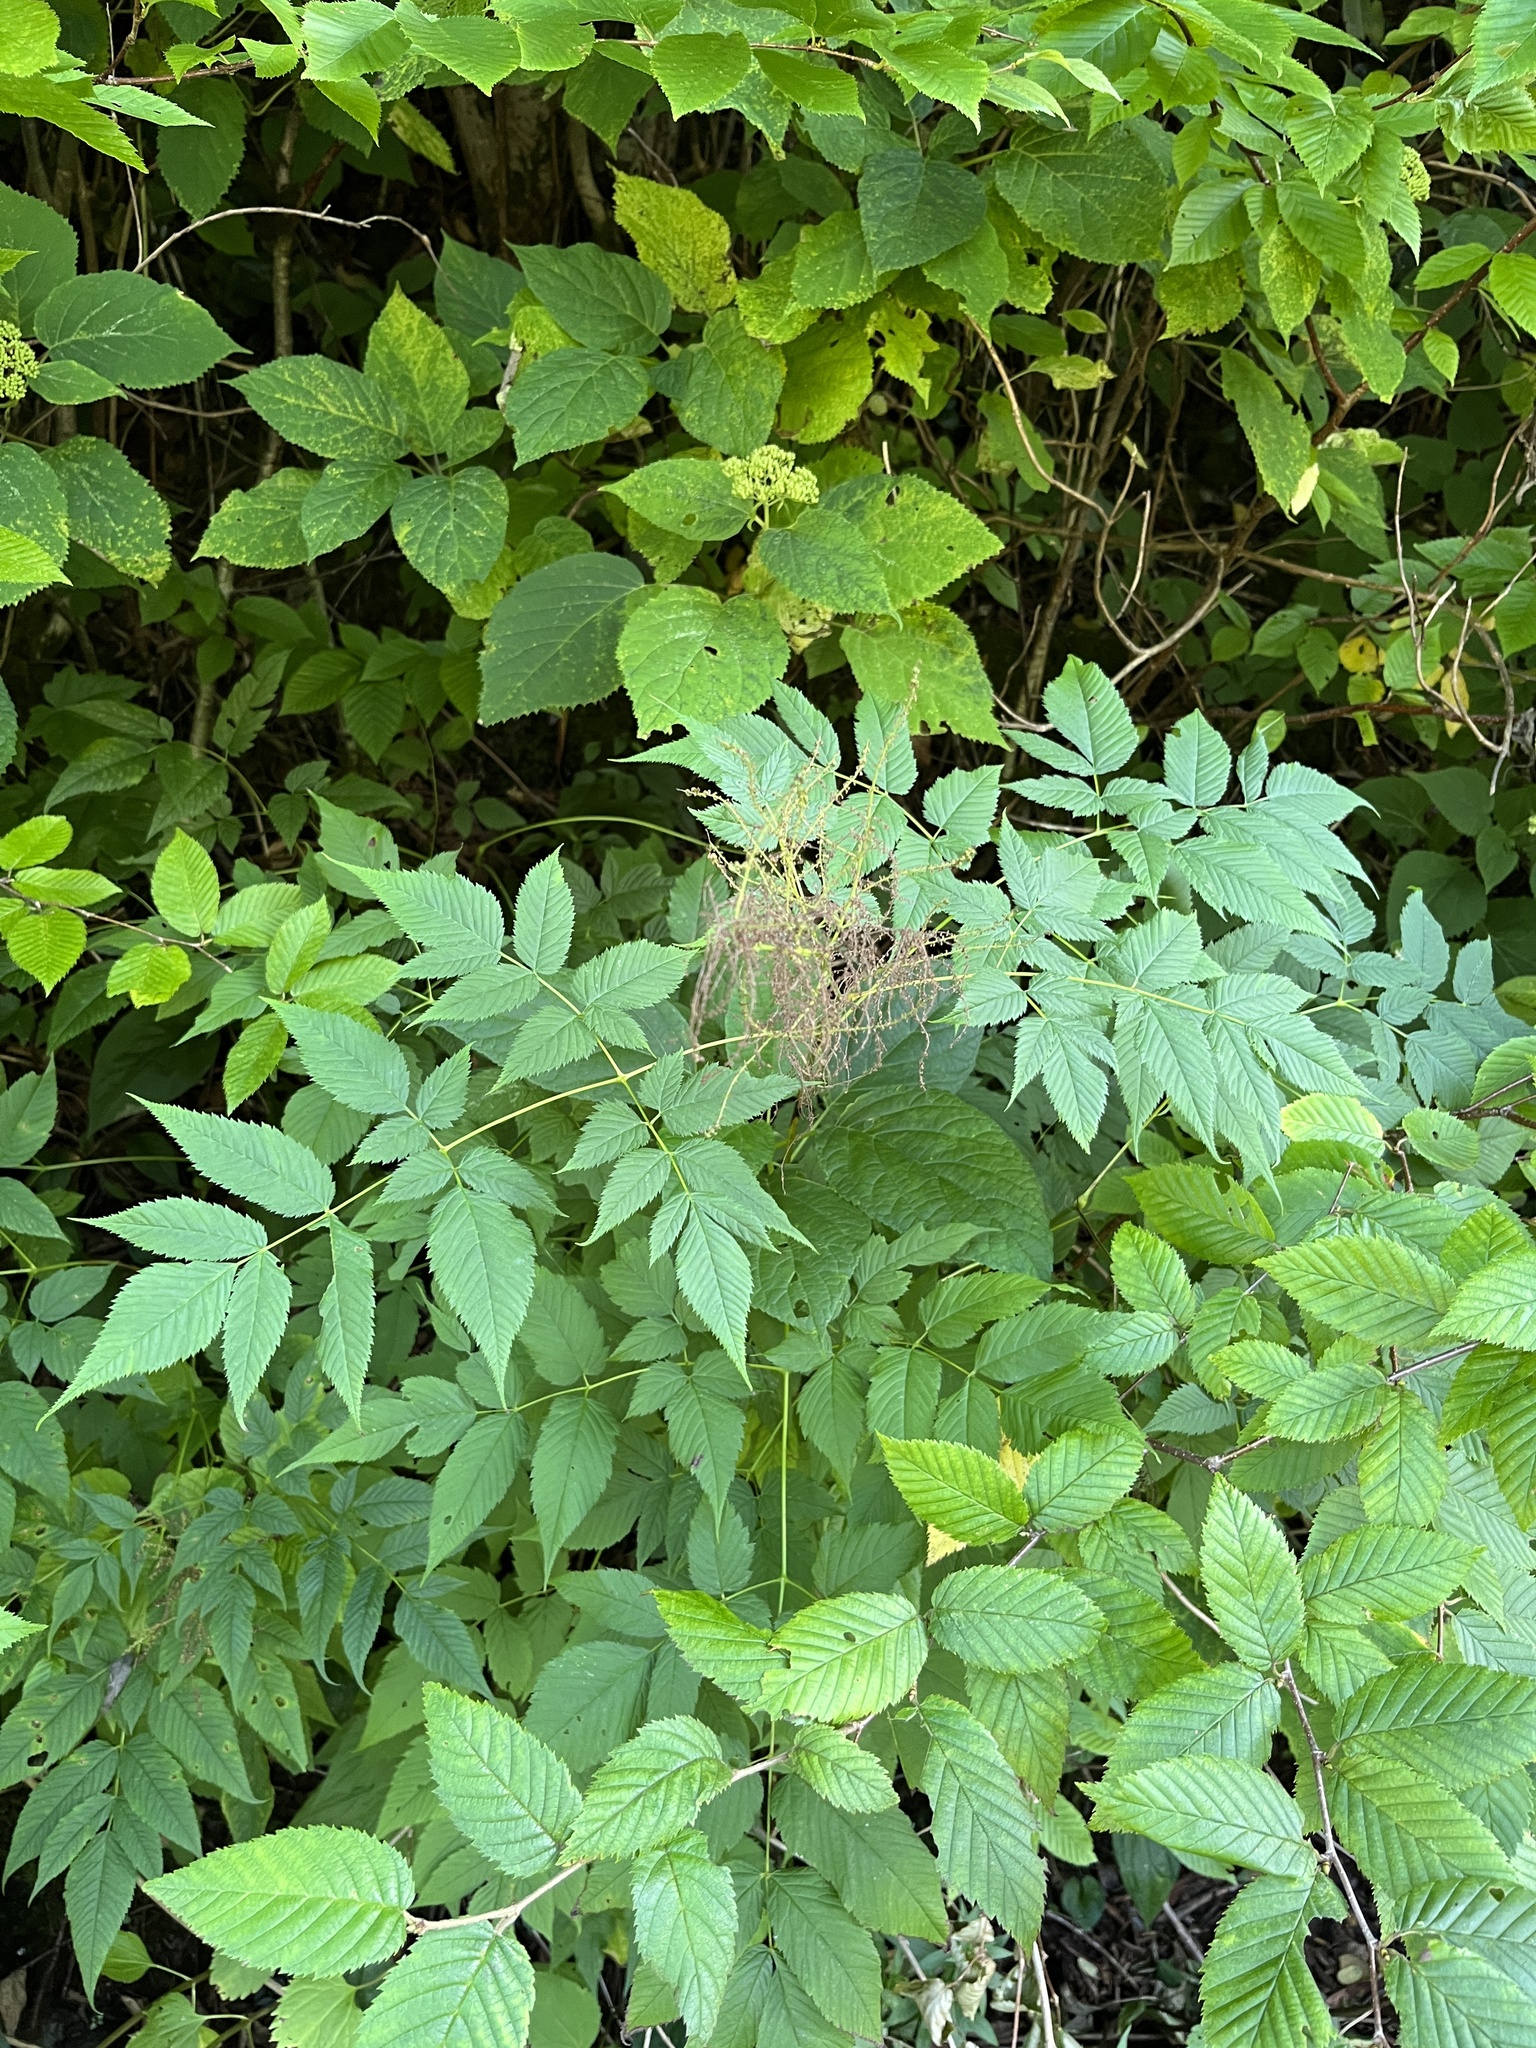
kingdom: Plantae
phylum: Tracheophyta
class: Magnoliopsida
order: Rosales
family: Rosaceae
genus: Aruncus
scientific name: Aruncus dioicus
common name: Buck's-beard
